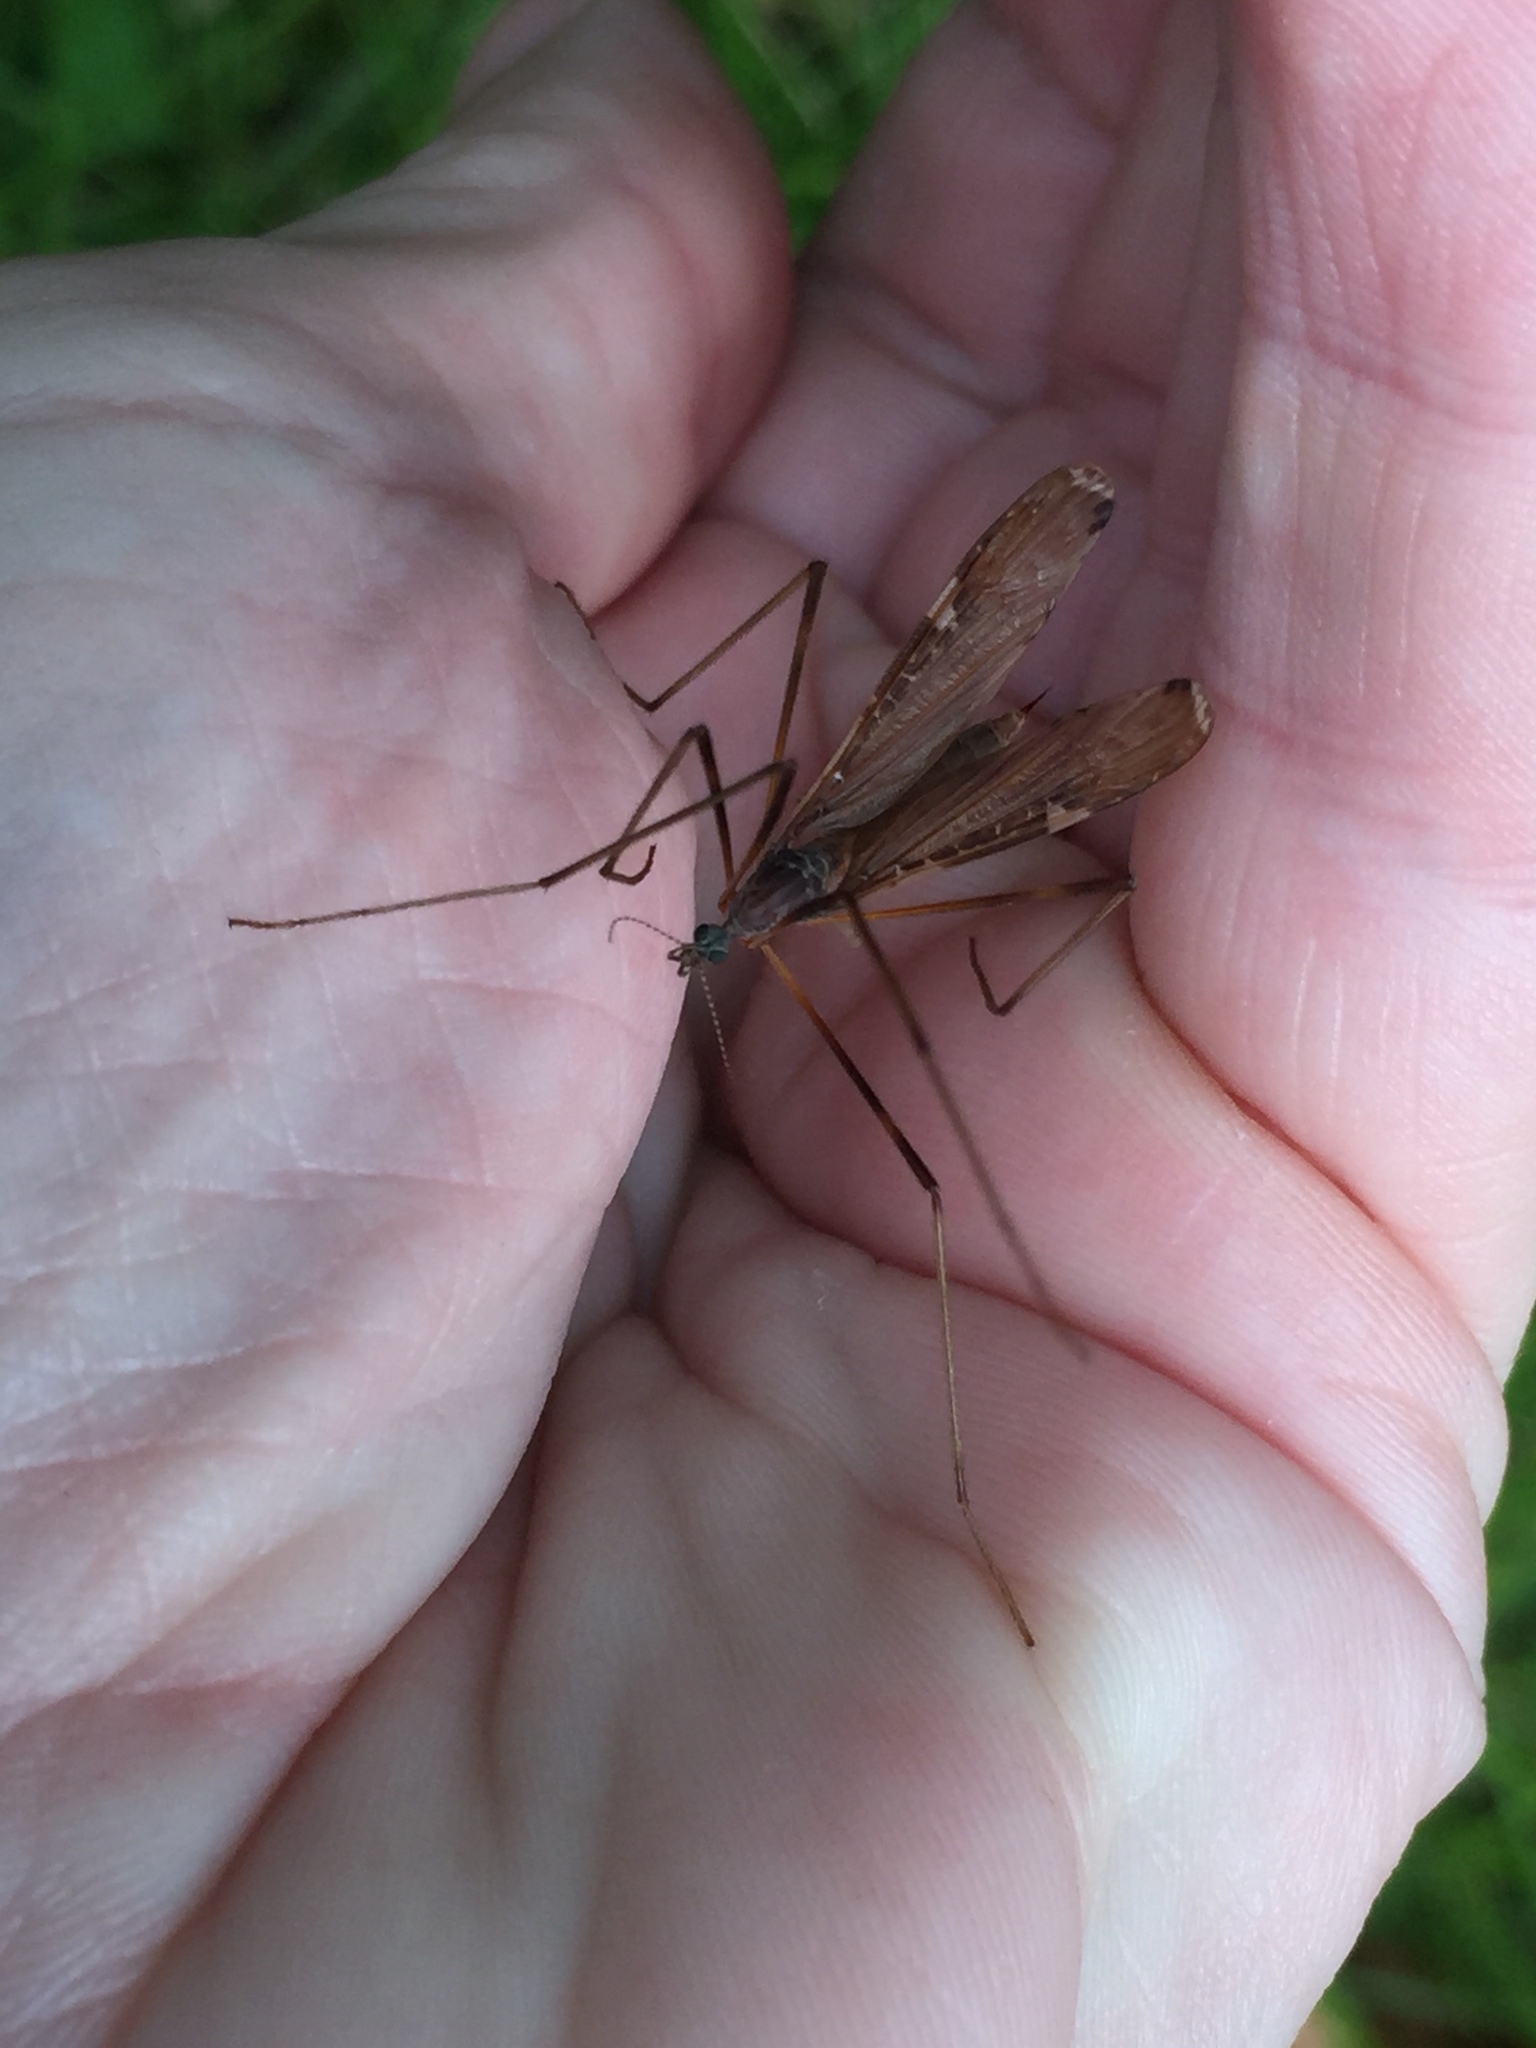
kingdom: Animalia
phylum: Arthropoda
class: Insecta
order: Diptera
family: Limoniidae
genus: Paralimnophila
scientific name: Paralimnophila skusei
